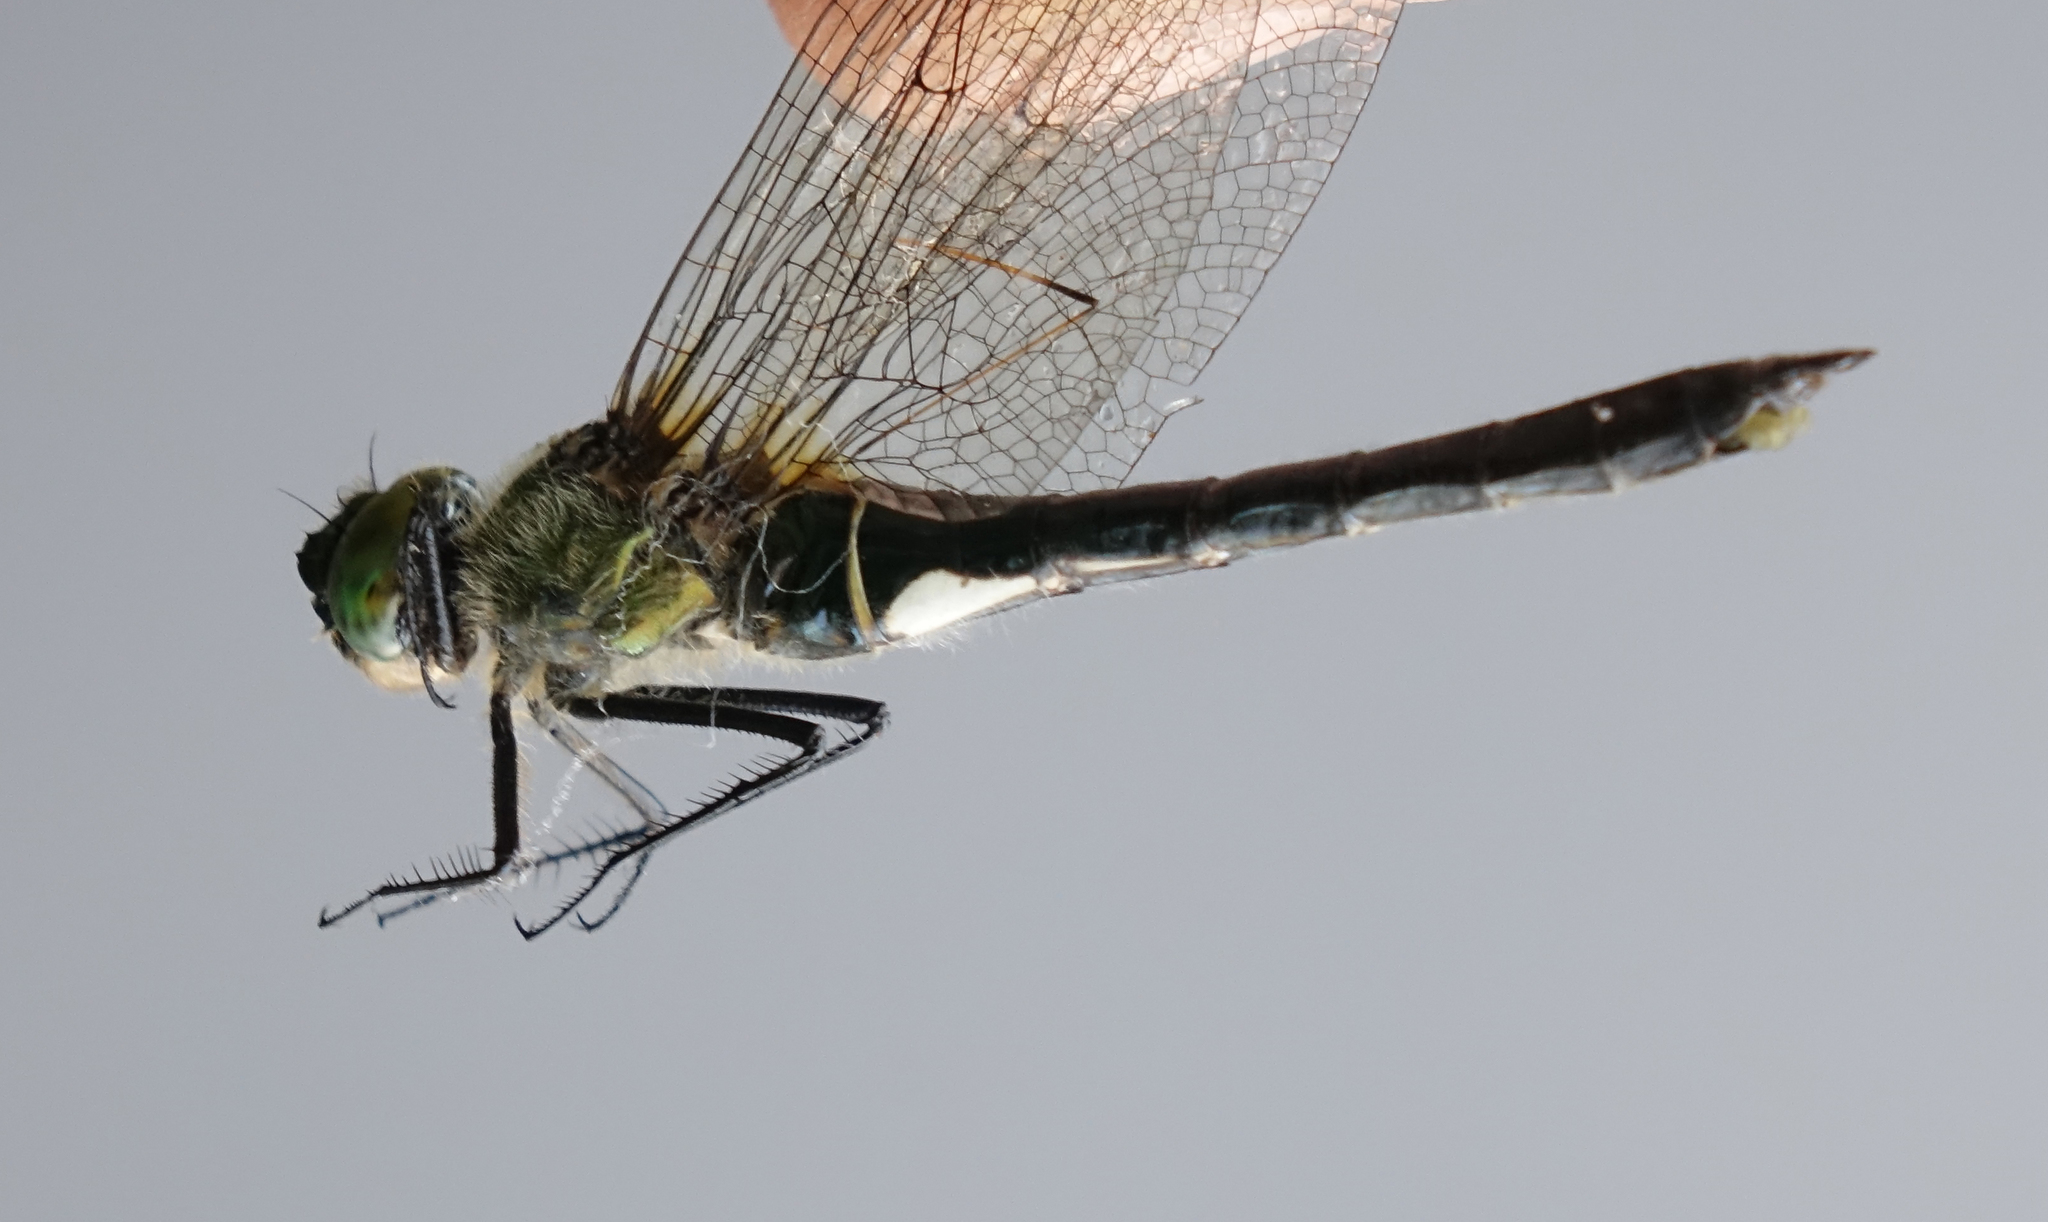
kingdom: Animalia
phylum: Arthropoda
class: Insecta
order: Odonata
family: Corduliidae
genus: Cordulia
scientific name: Cordulia aenea
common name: Downy emerald
